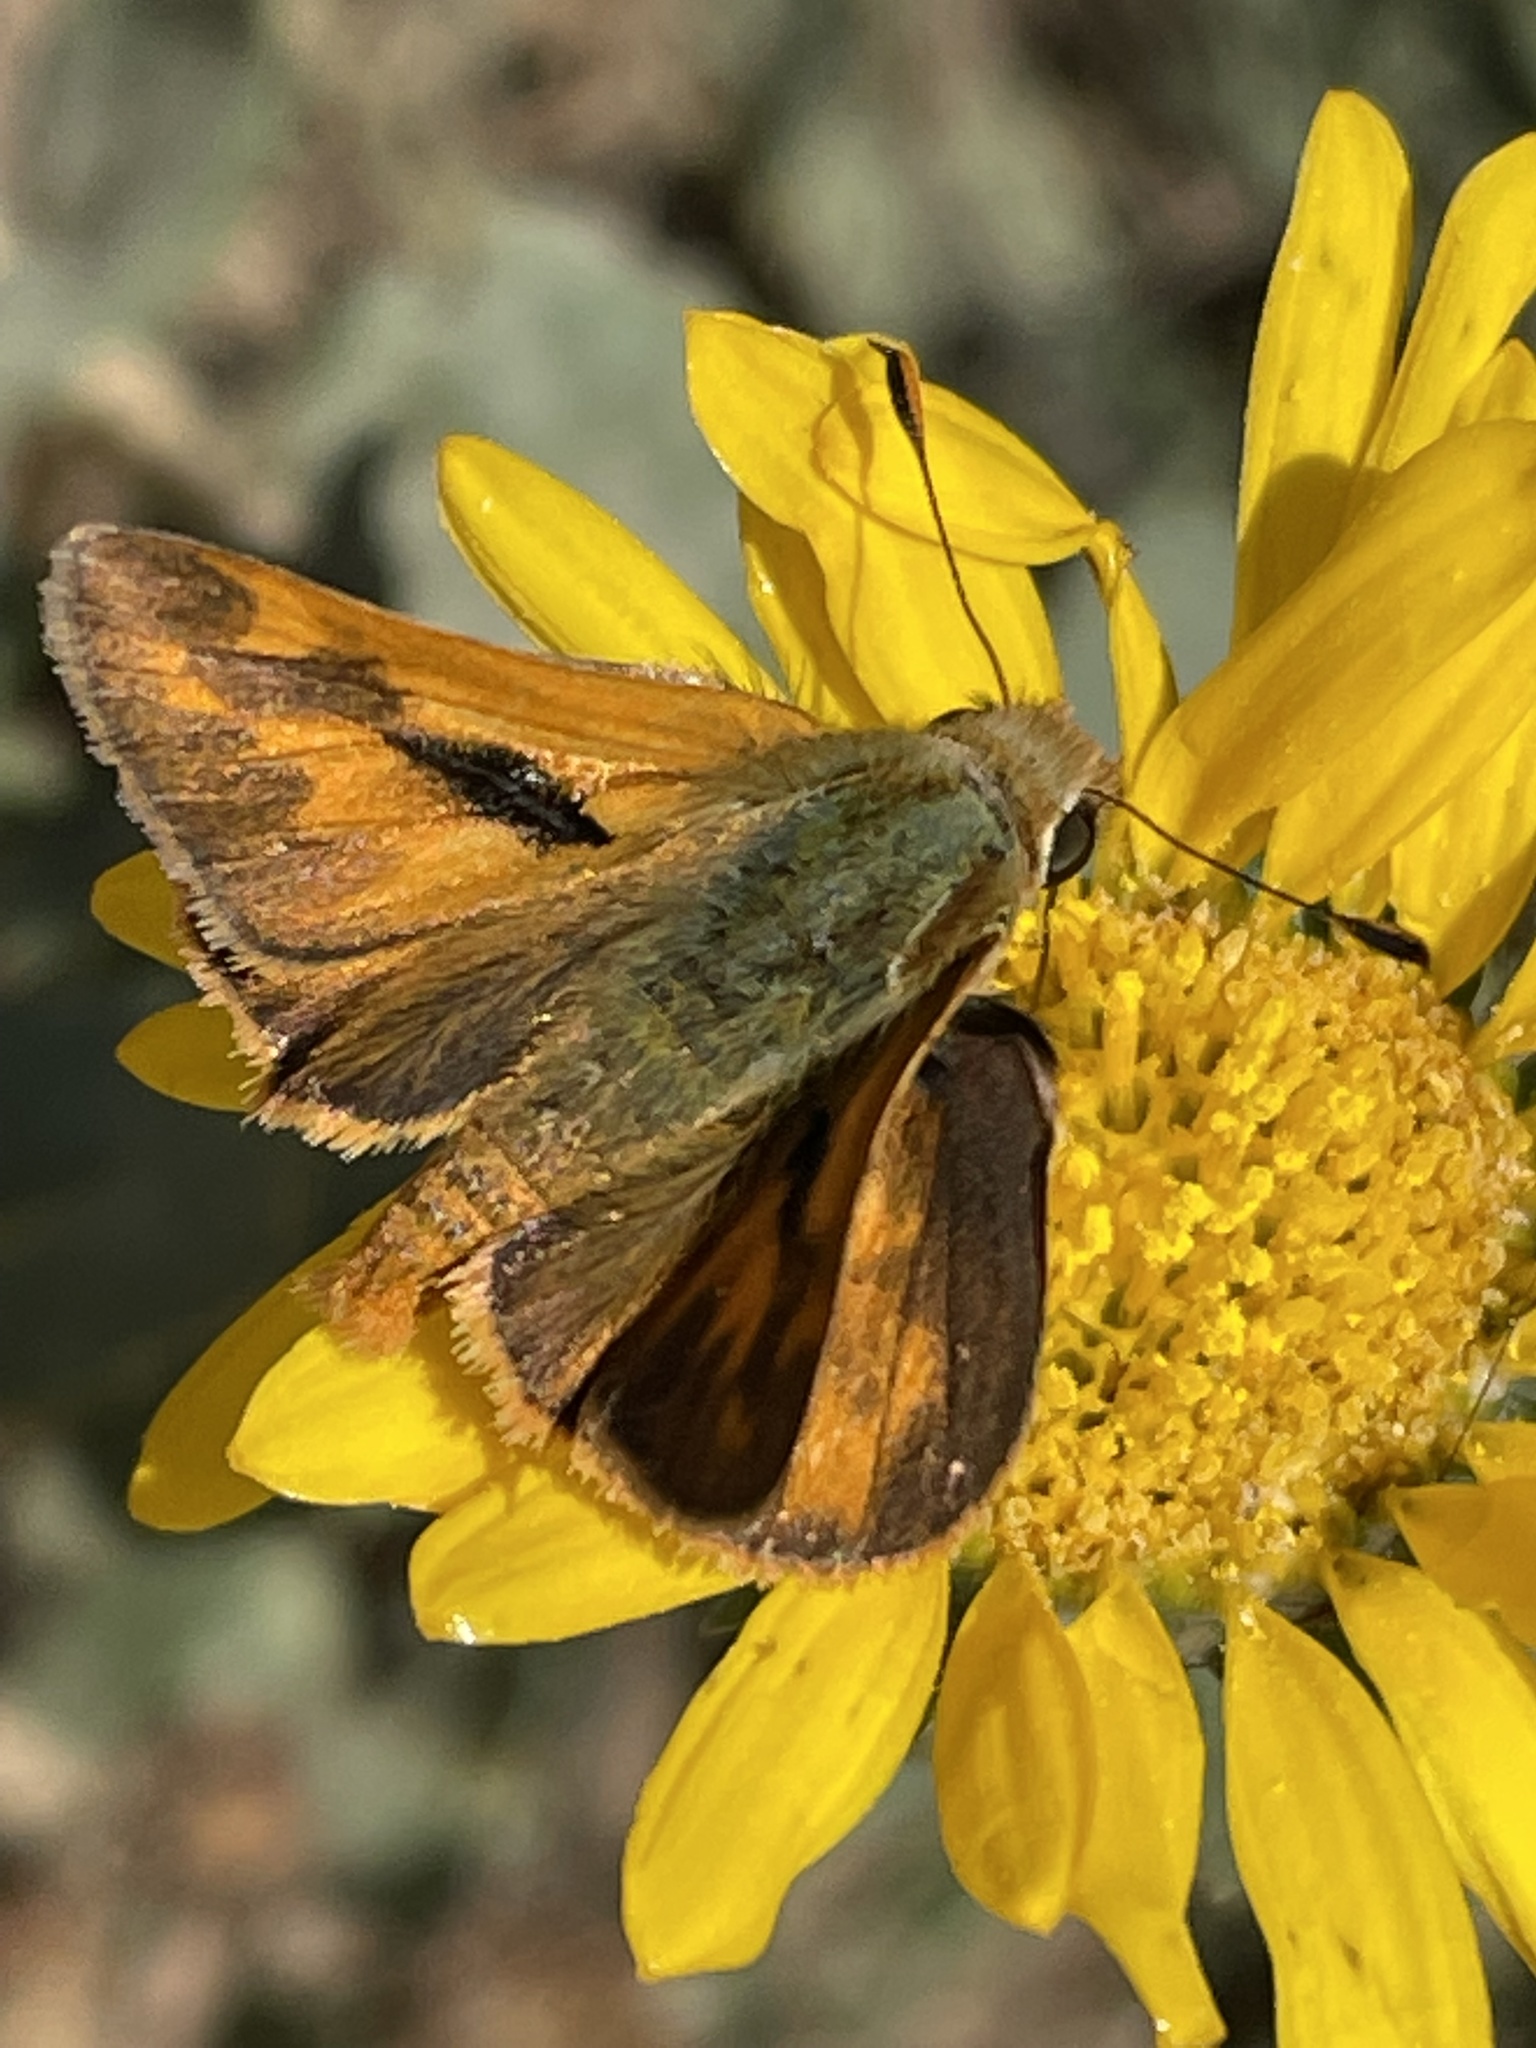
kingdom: Animalia
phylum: Arthropoda
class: Insecta
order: Lepidoptera
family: Hesperiidae
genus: Ochlodes
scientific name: Ochlodes sylvanoides
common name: Woodland skipper
